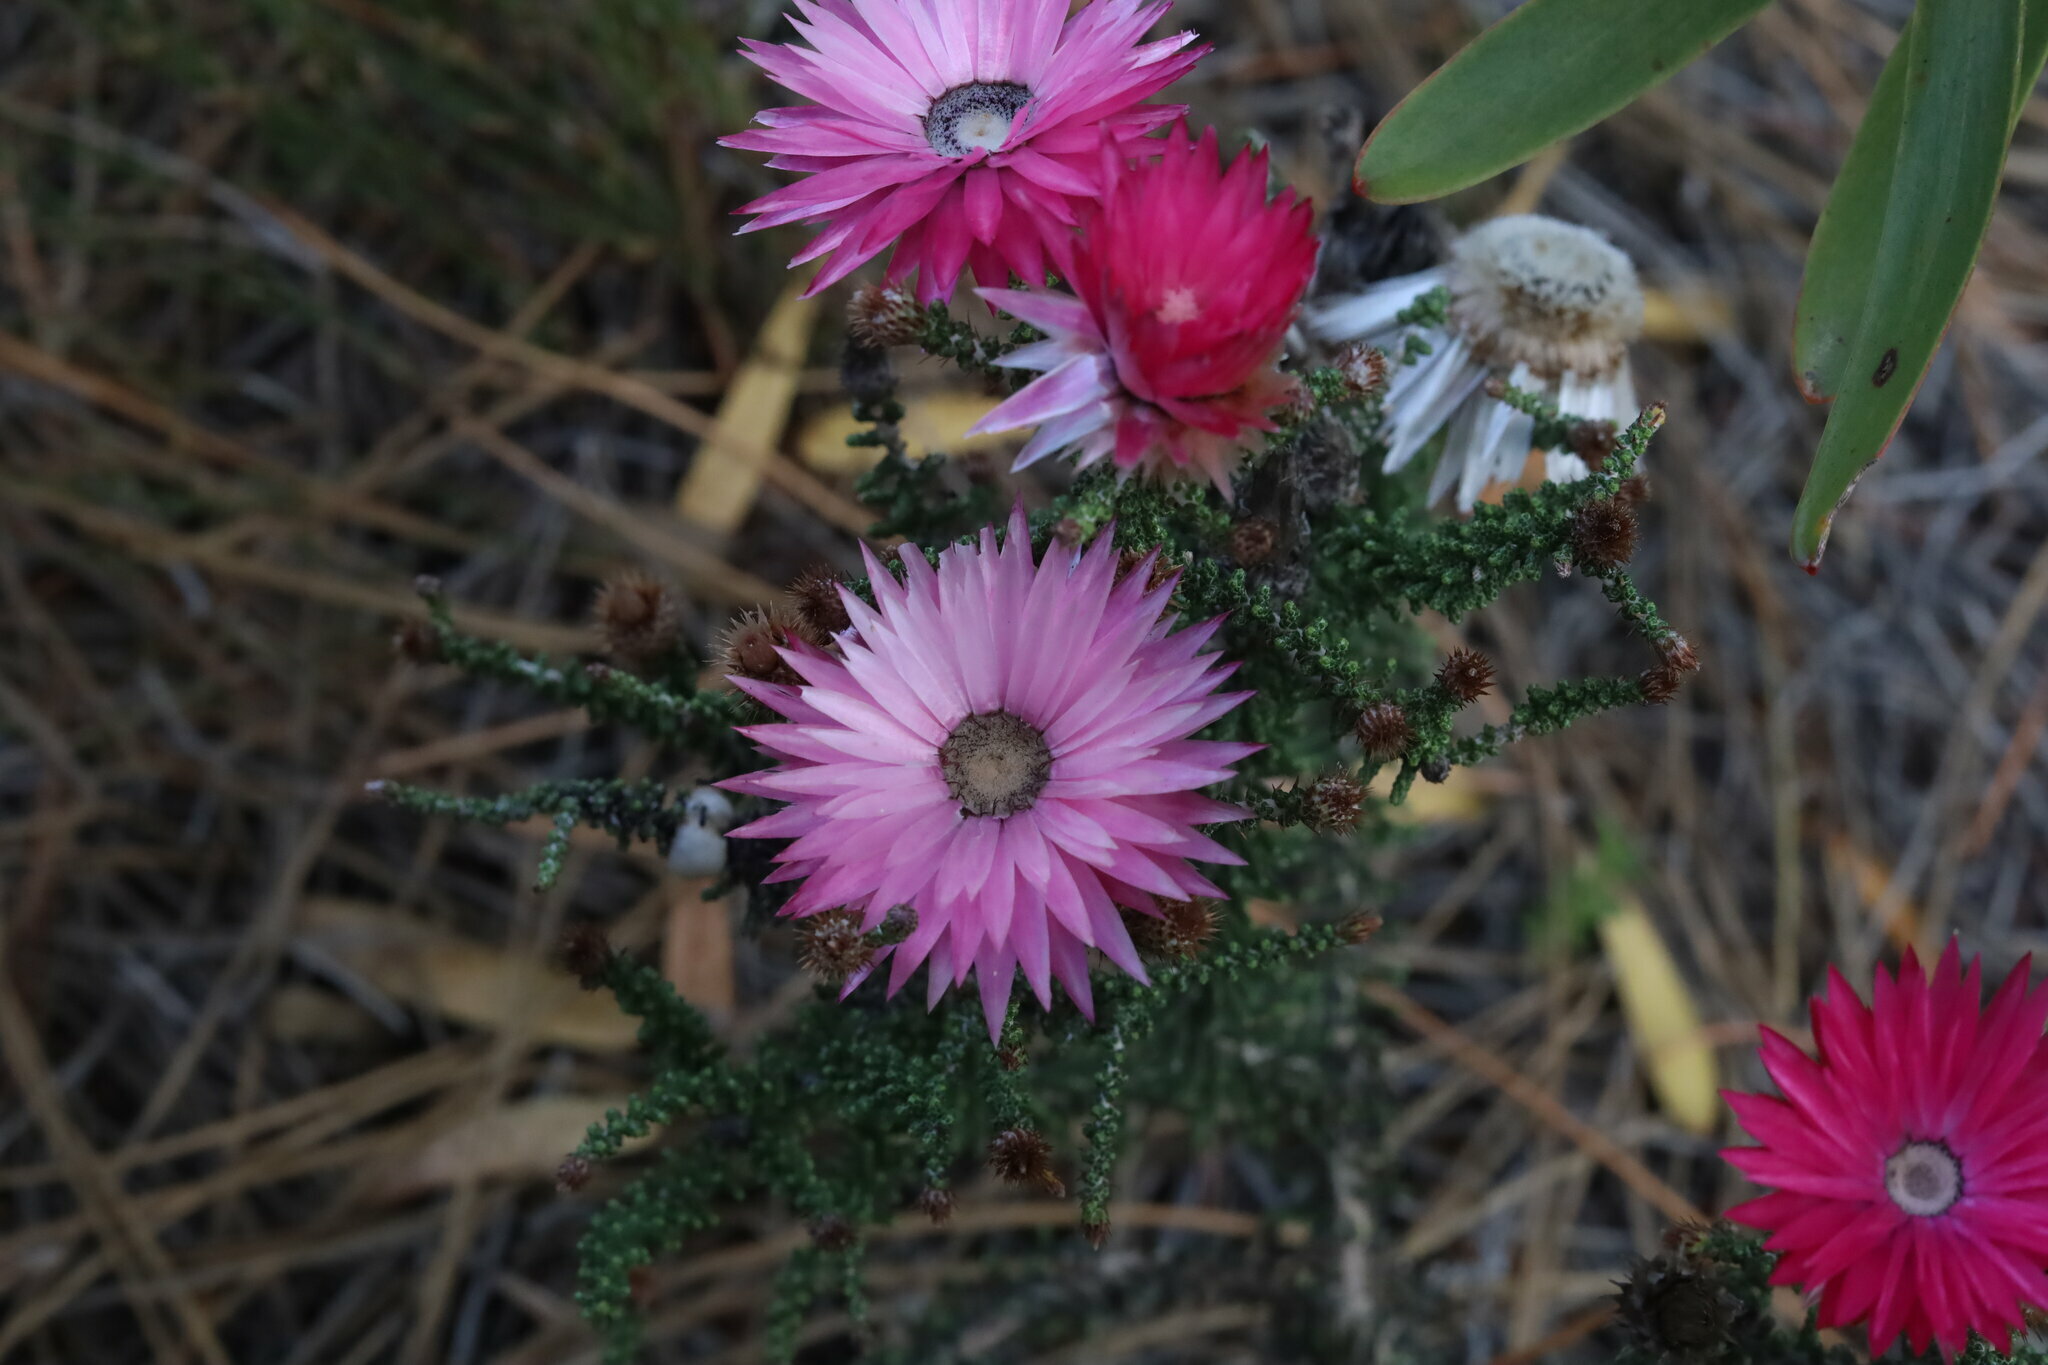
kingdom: Plantae
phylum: Tracheophyta
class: Magnoliopsida
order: Asterales
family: Asteraceae
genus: Phaenocoma
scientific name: Phaenocoma prolifera
